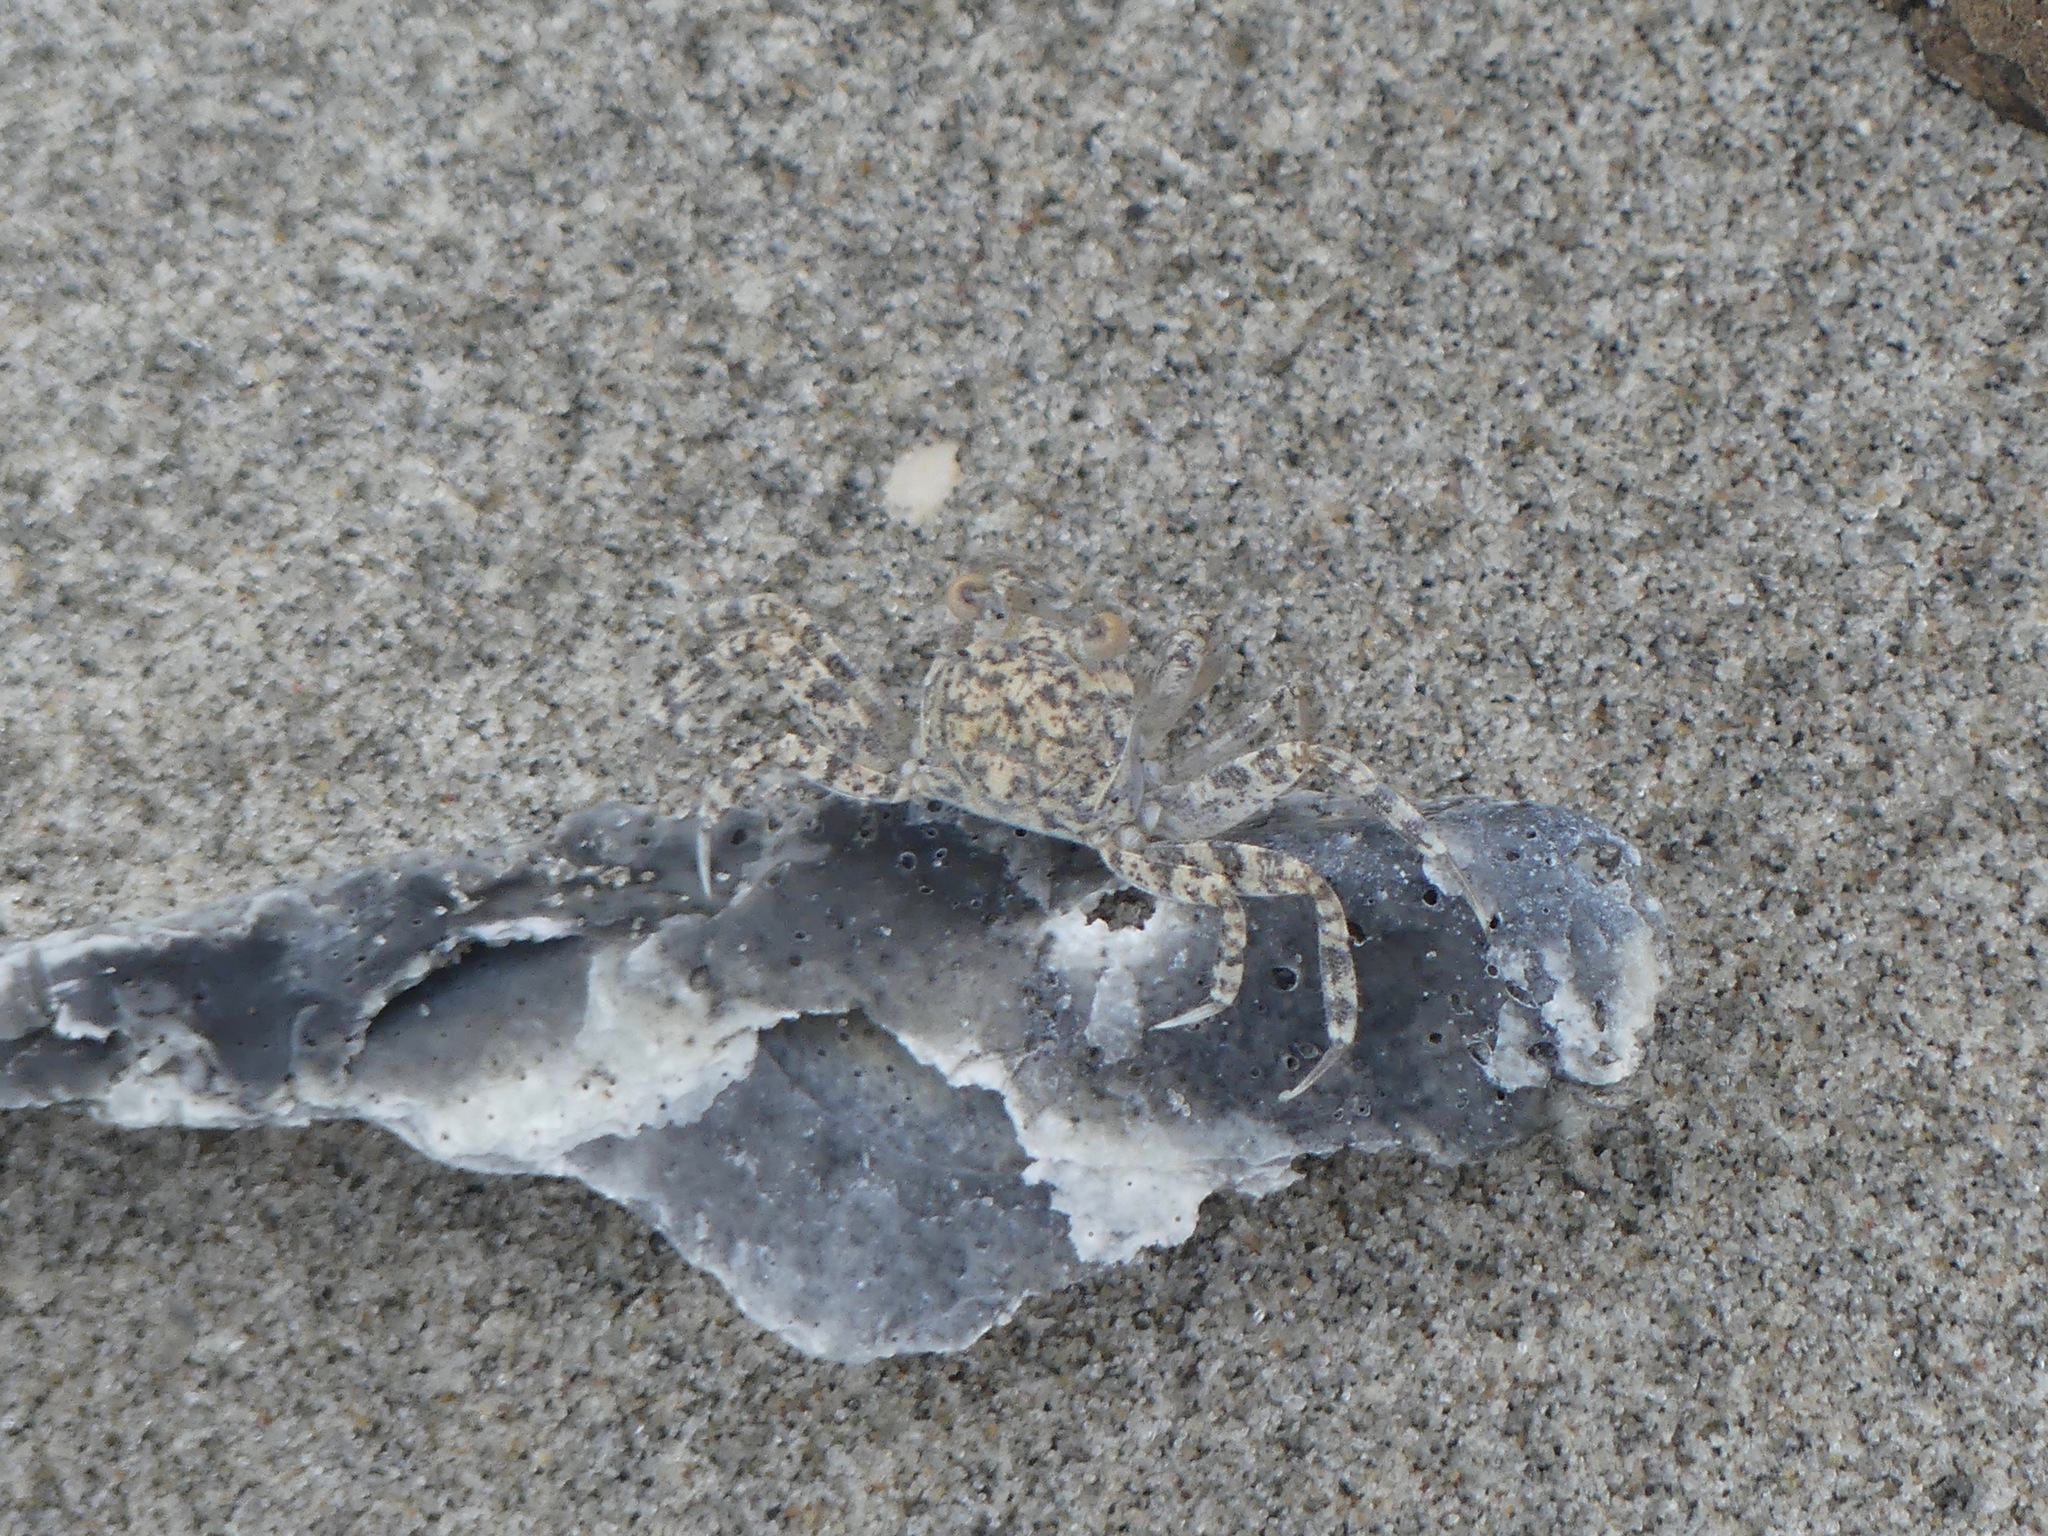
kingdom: Animalia
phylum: Arthropoda
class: Malacostraca
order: Decapoda
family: Ocypodidae
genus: Ocypode
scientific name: Ocypode quadrata
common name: Ghost crab
